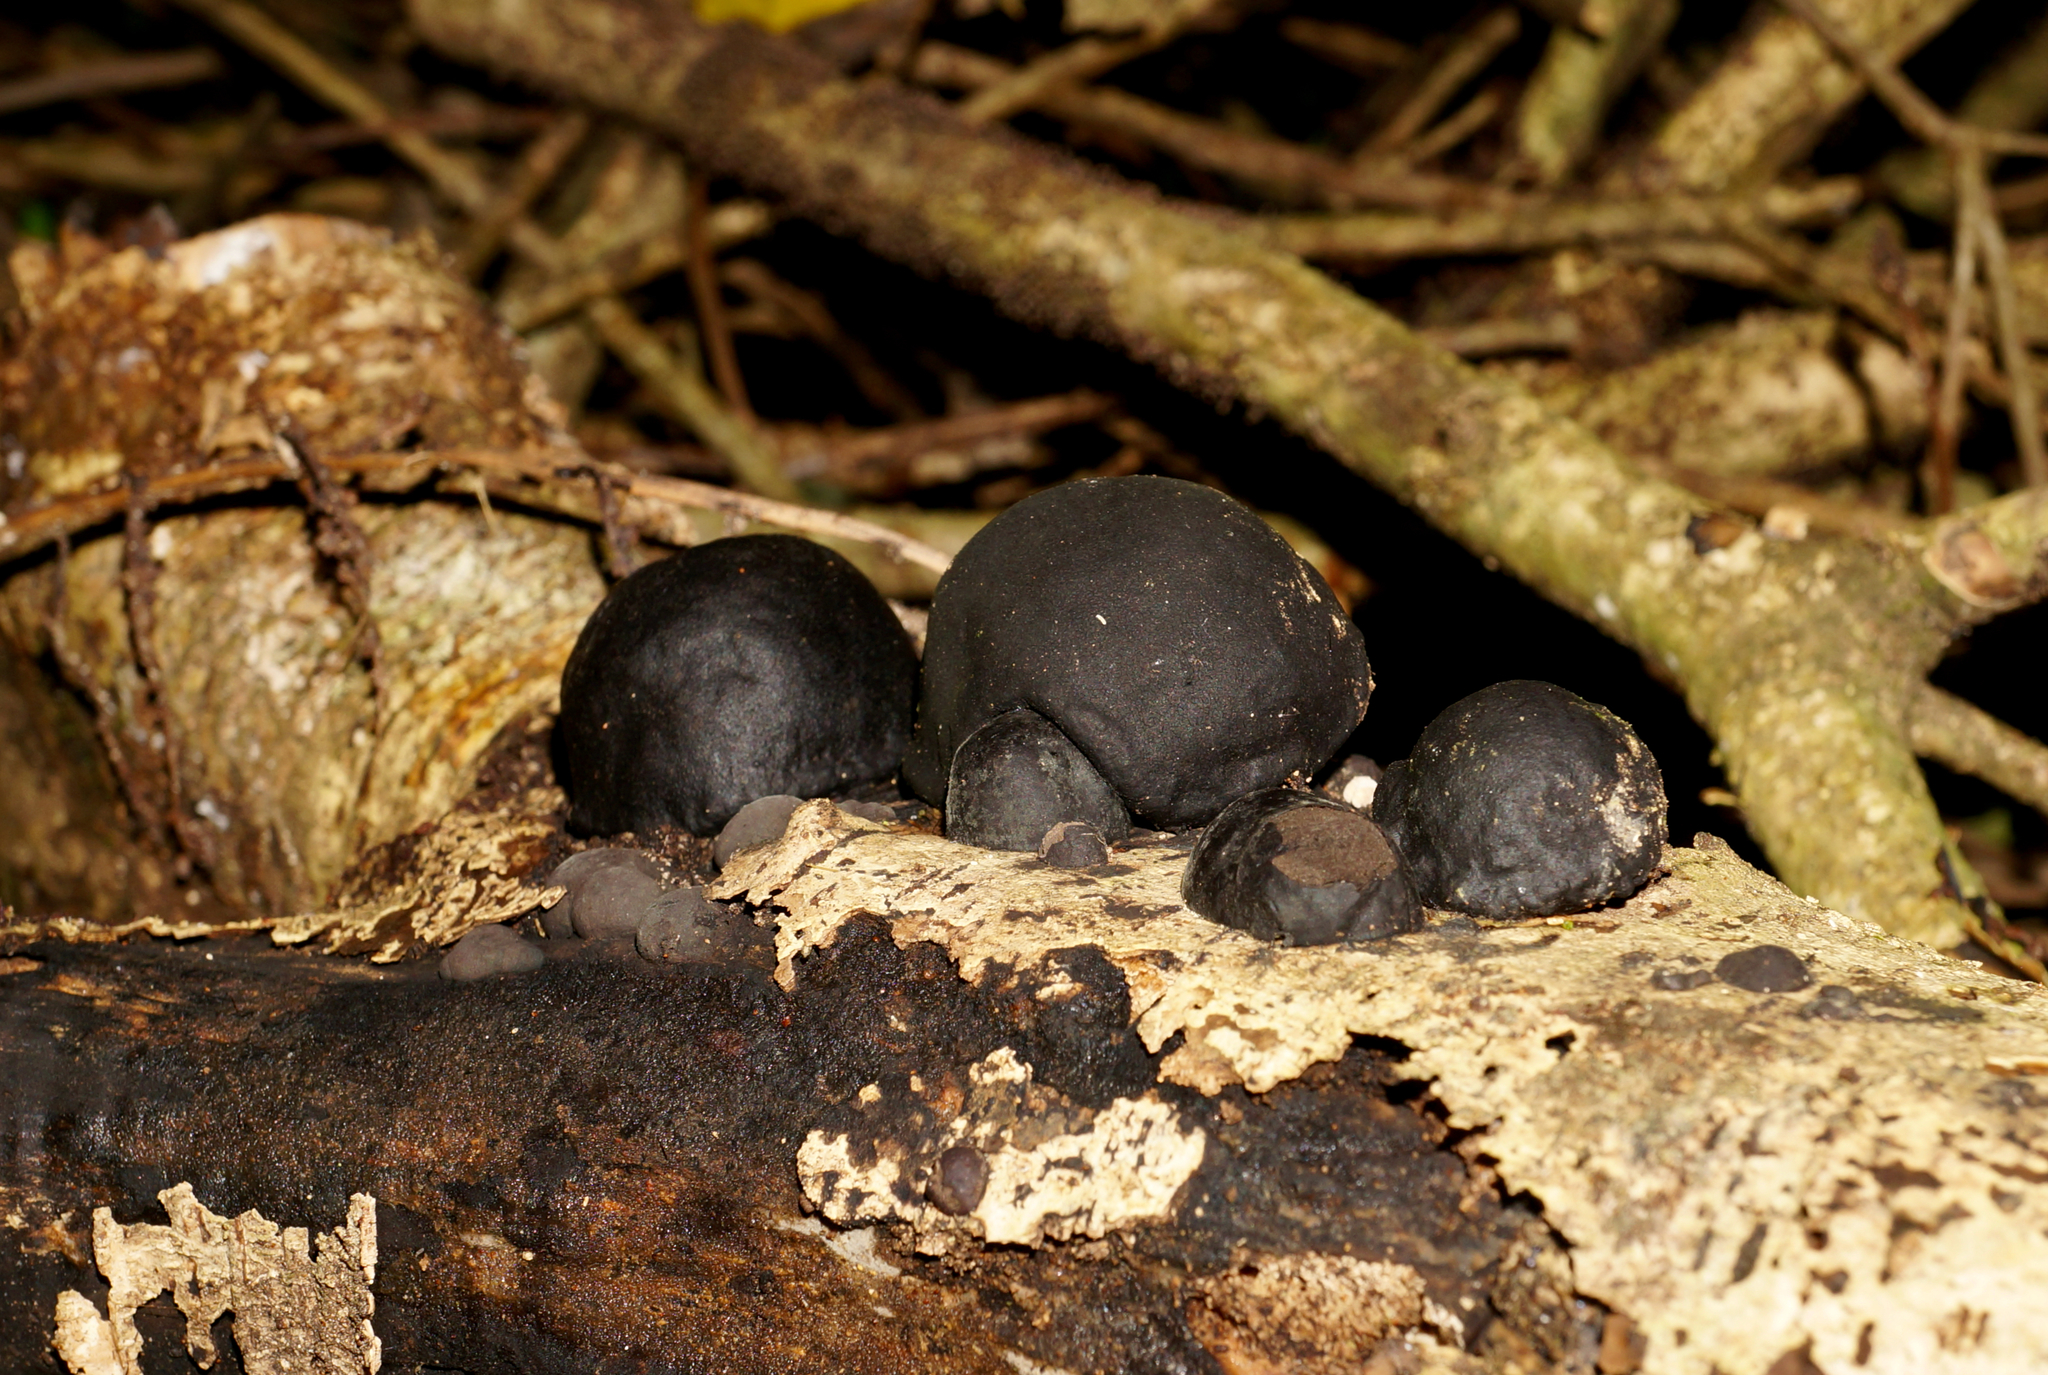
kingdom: Fungi
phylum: Ascomycota
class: Sordariomycetes
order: Xylariales
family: Hypoxylaceae
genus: Daldinia
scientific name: Daldinia
